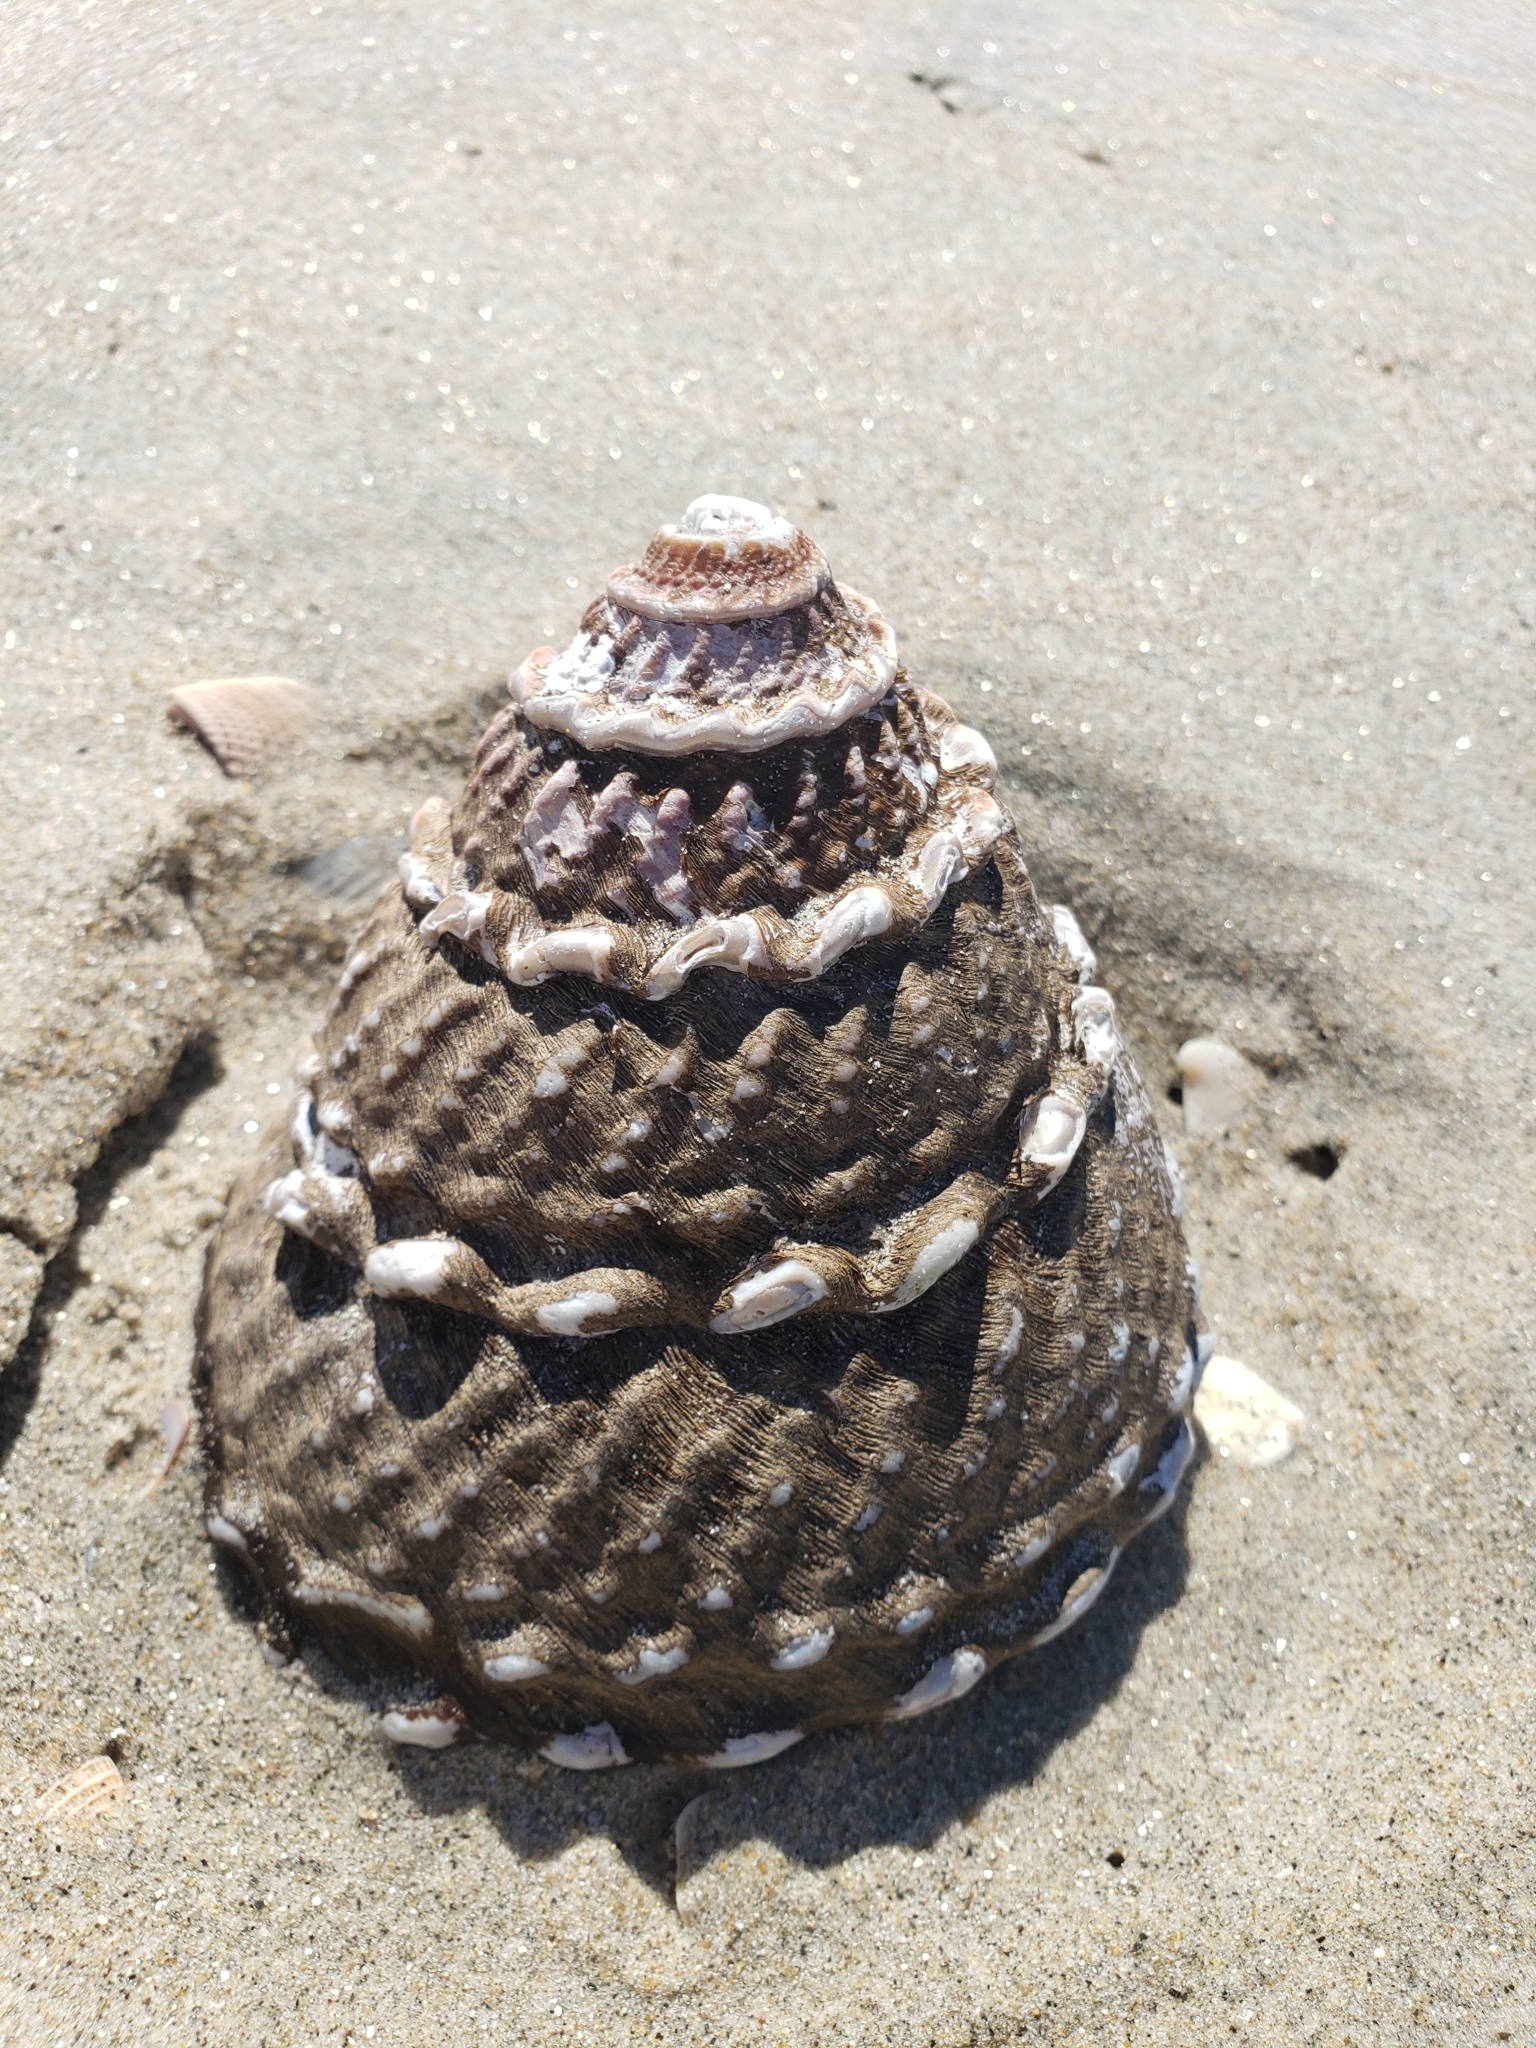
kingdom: Animalia
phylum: Mollusca
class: Gastropoda
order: Trochida
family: Turbinidae
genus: Megastraea
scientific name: Megastraea undosa
